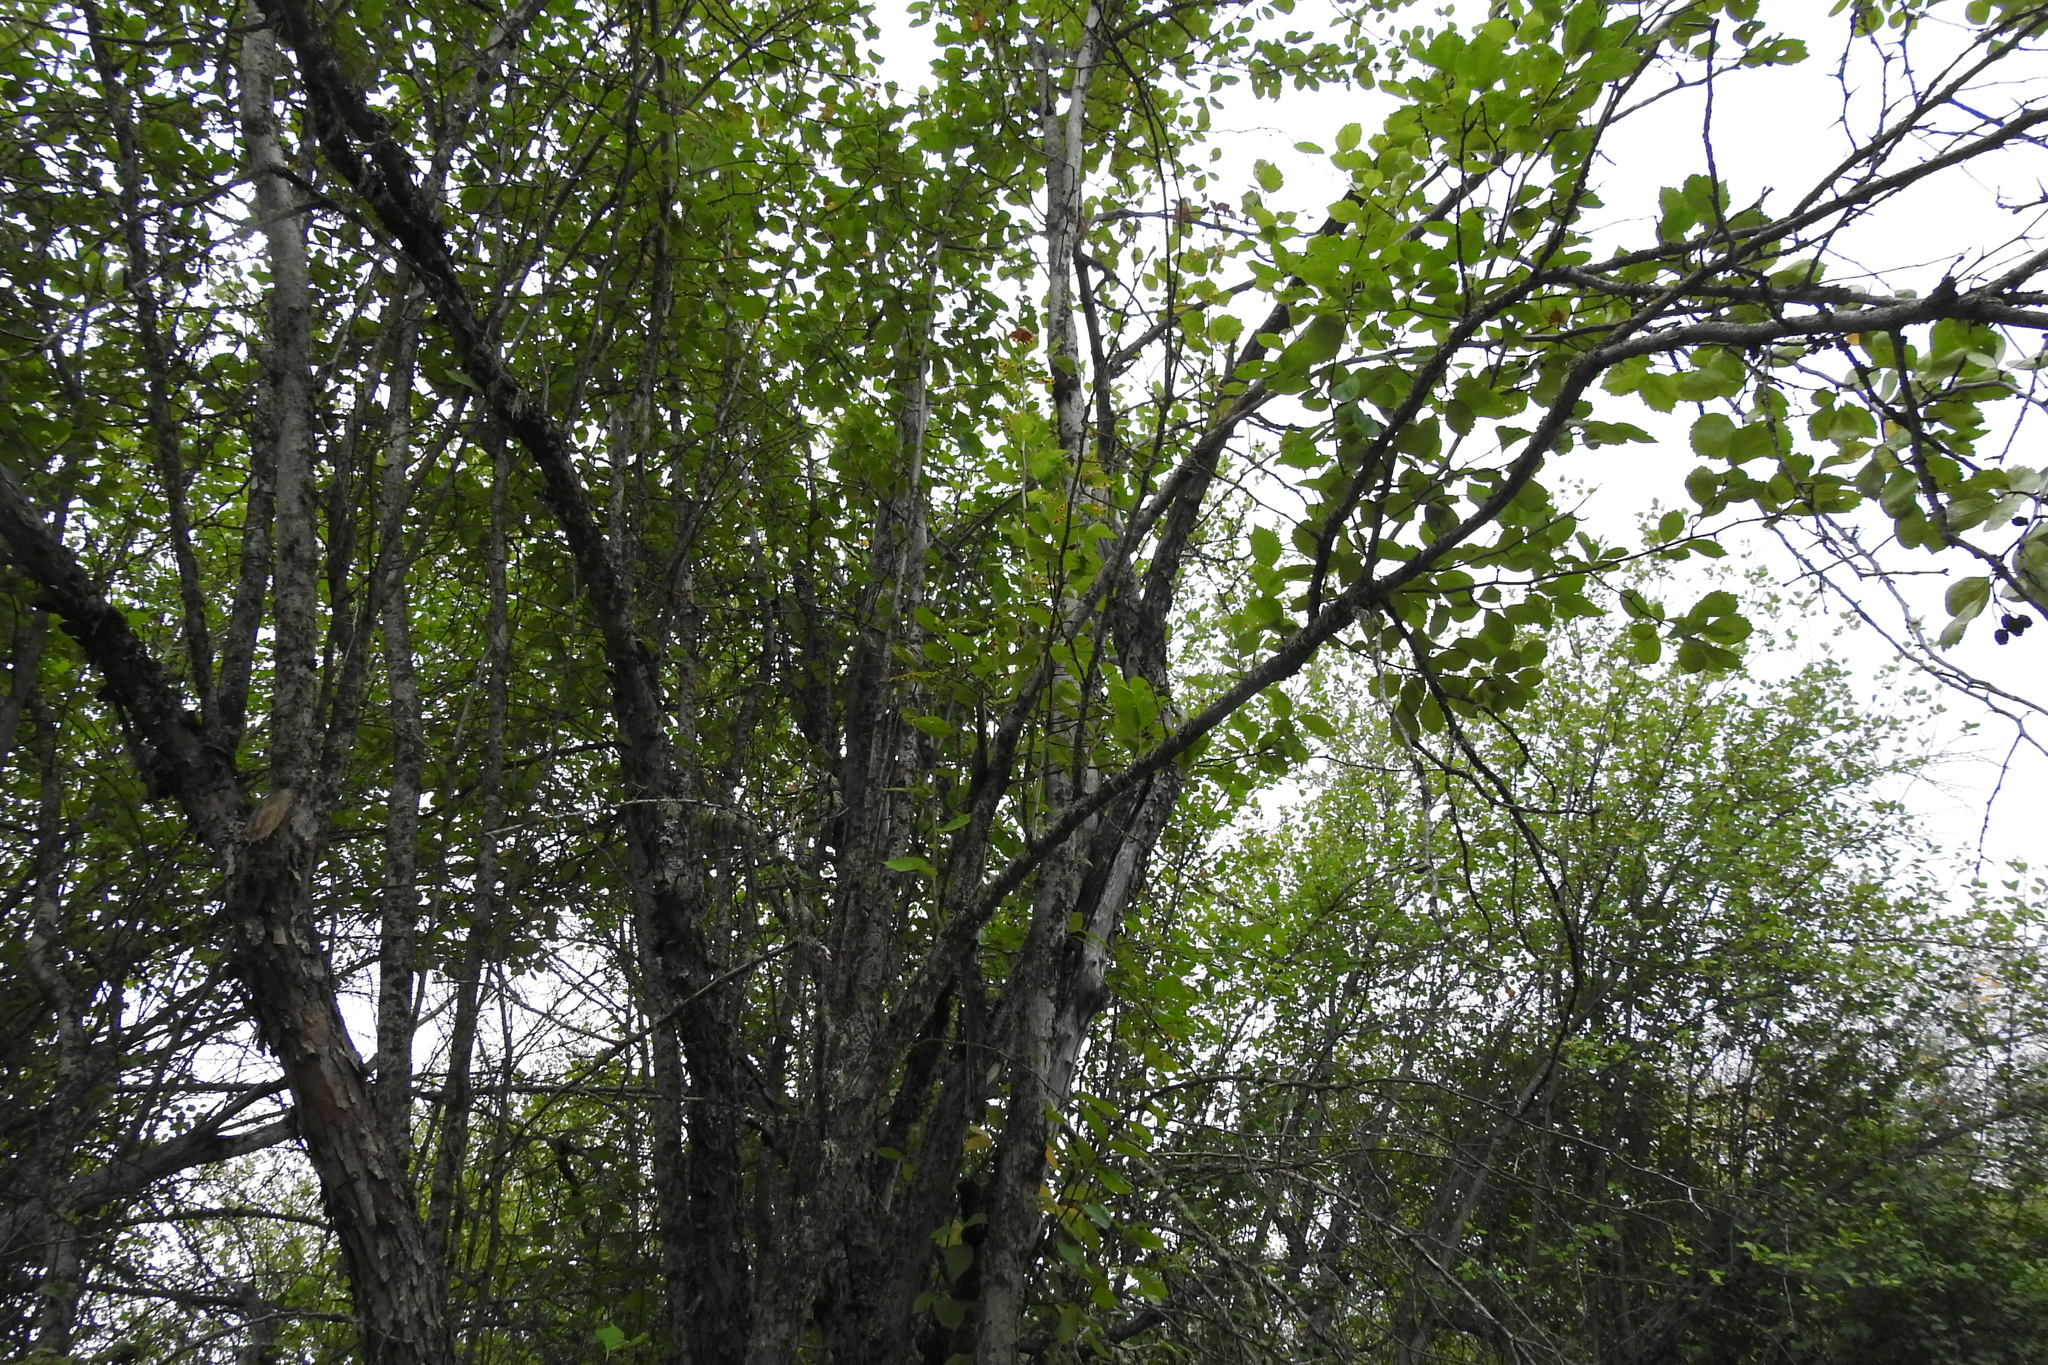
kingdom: Plantae
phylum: Tracheophyta
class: Magnoliopsida
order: Rosales
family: Rosaceae
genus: Crataegus
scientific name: Crataegus douglasii
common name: Black hawthorn
